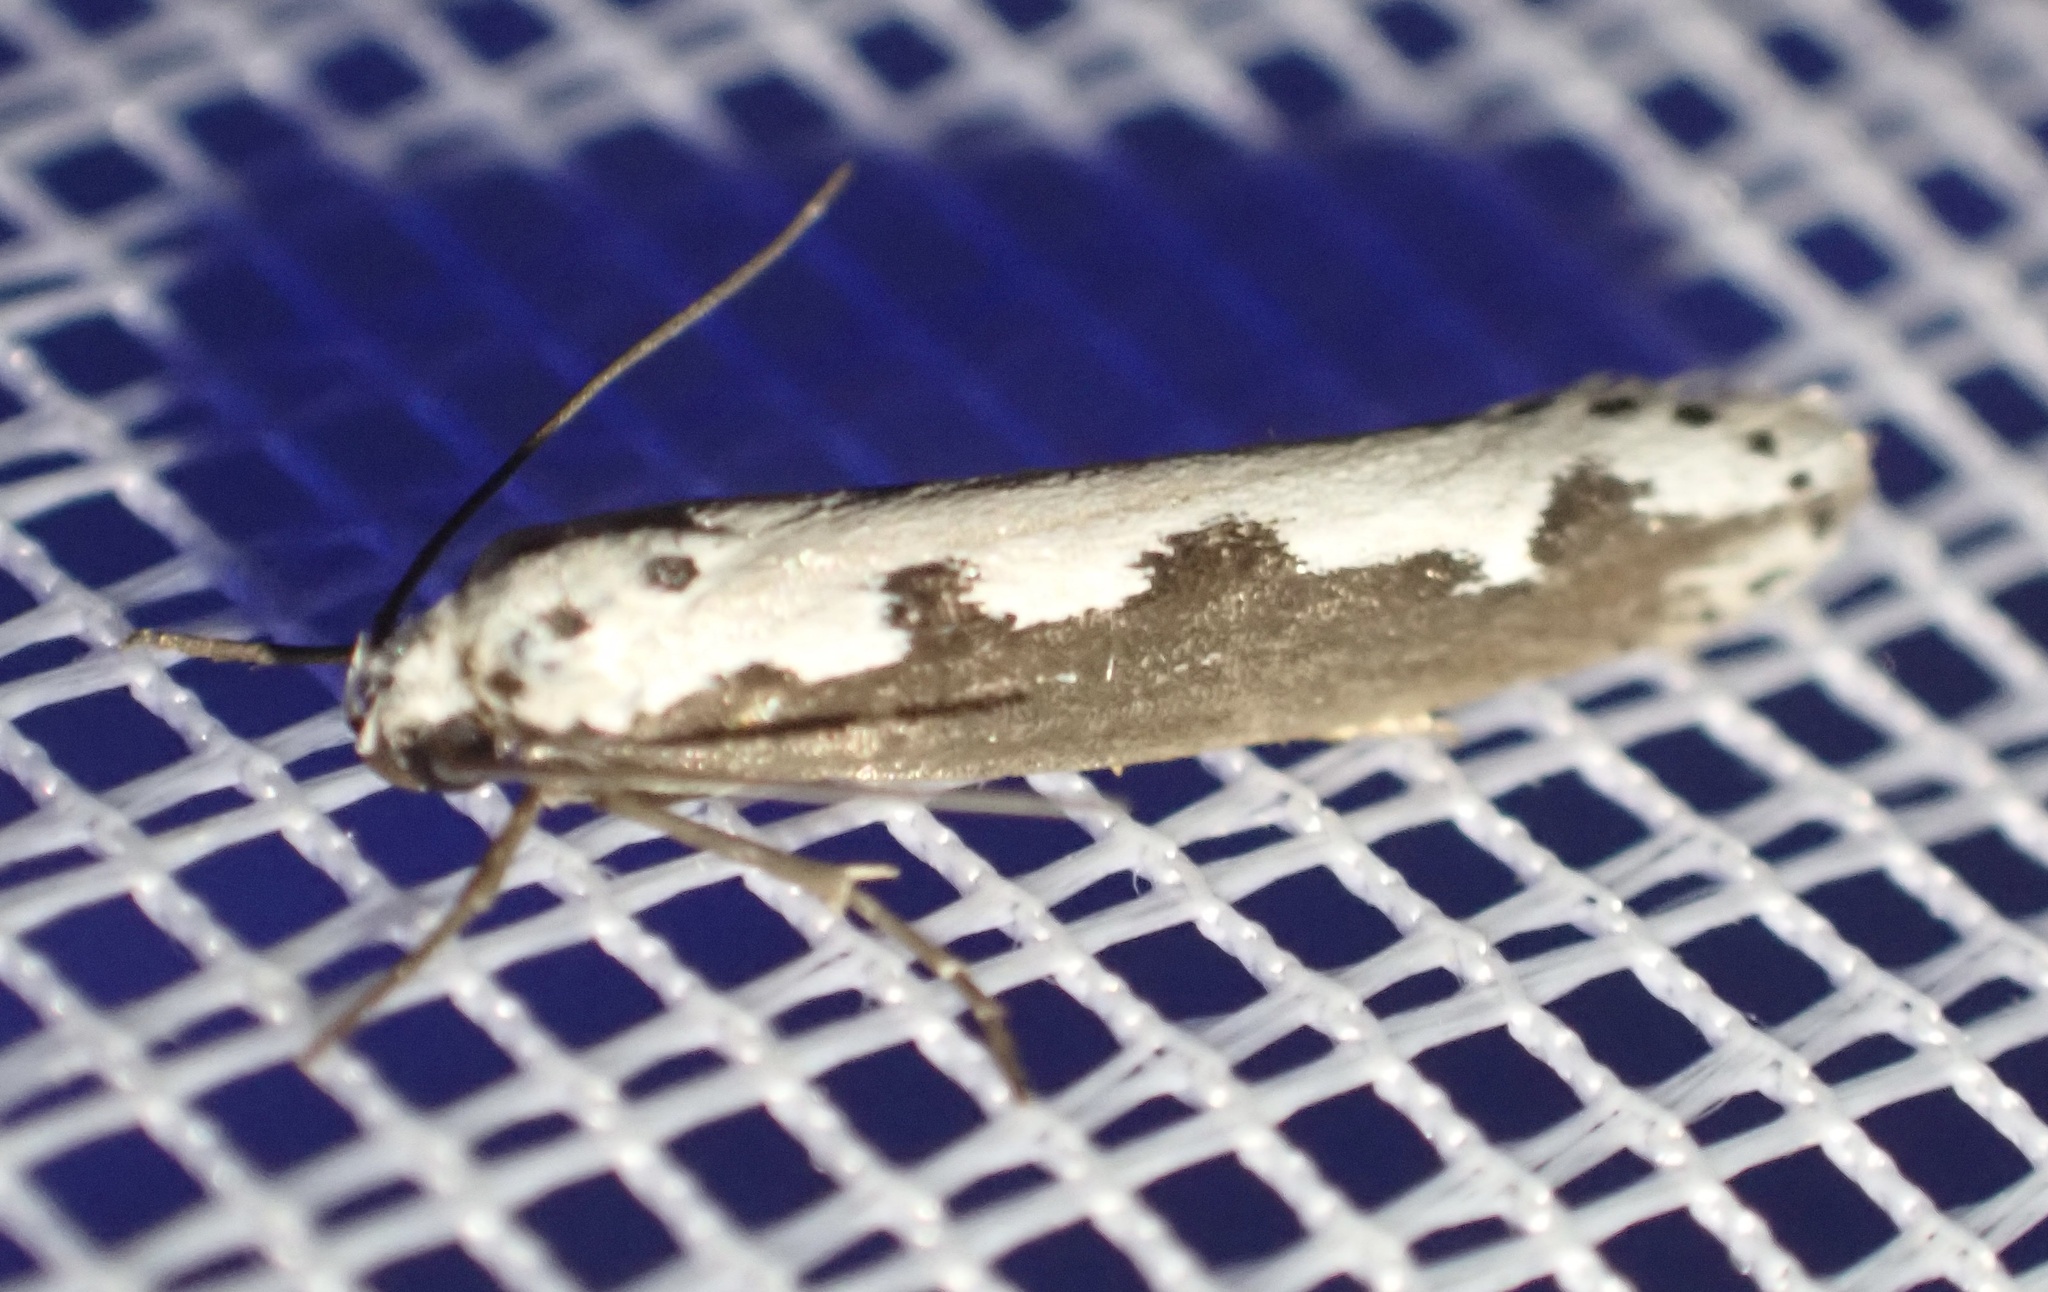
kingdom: Animalia
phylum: Arthropoda
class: Insecta
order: Lepidoptera
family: Ethmiidae
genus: Ethmia
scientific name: Ethmia bipunctella
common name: Bordered ermel
